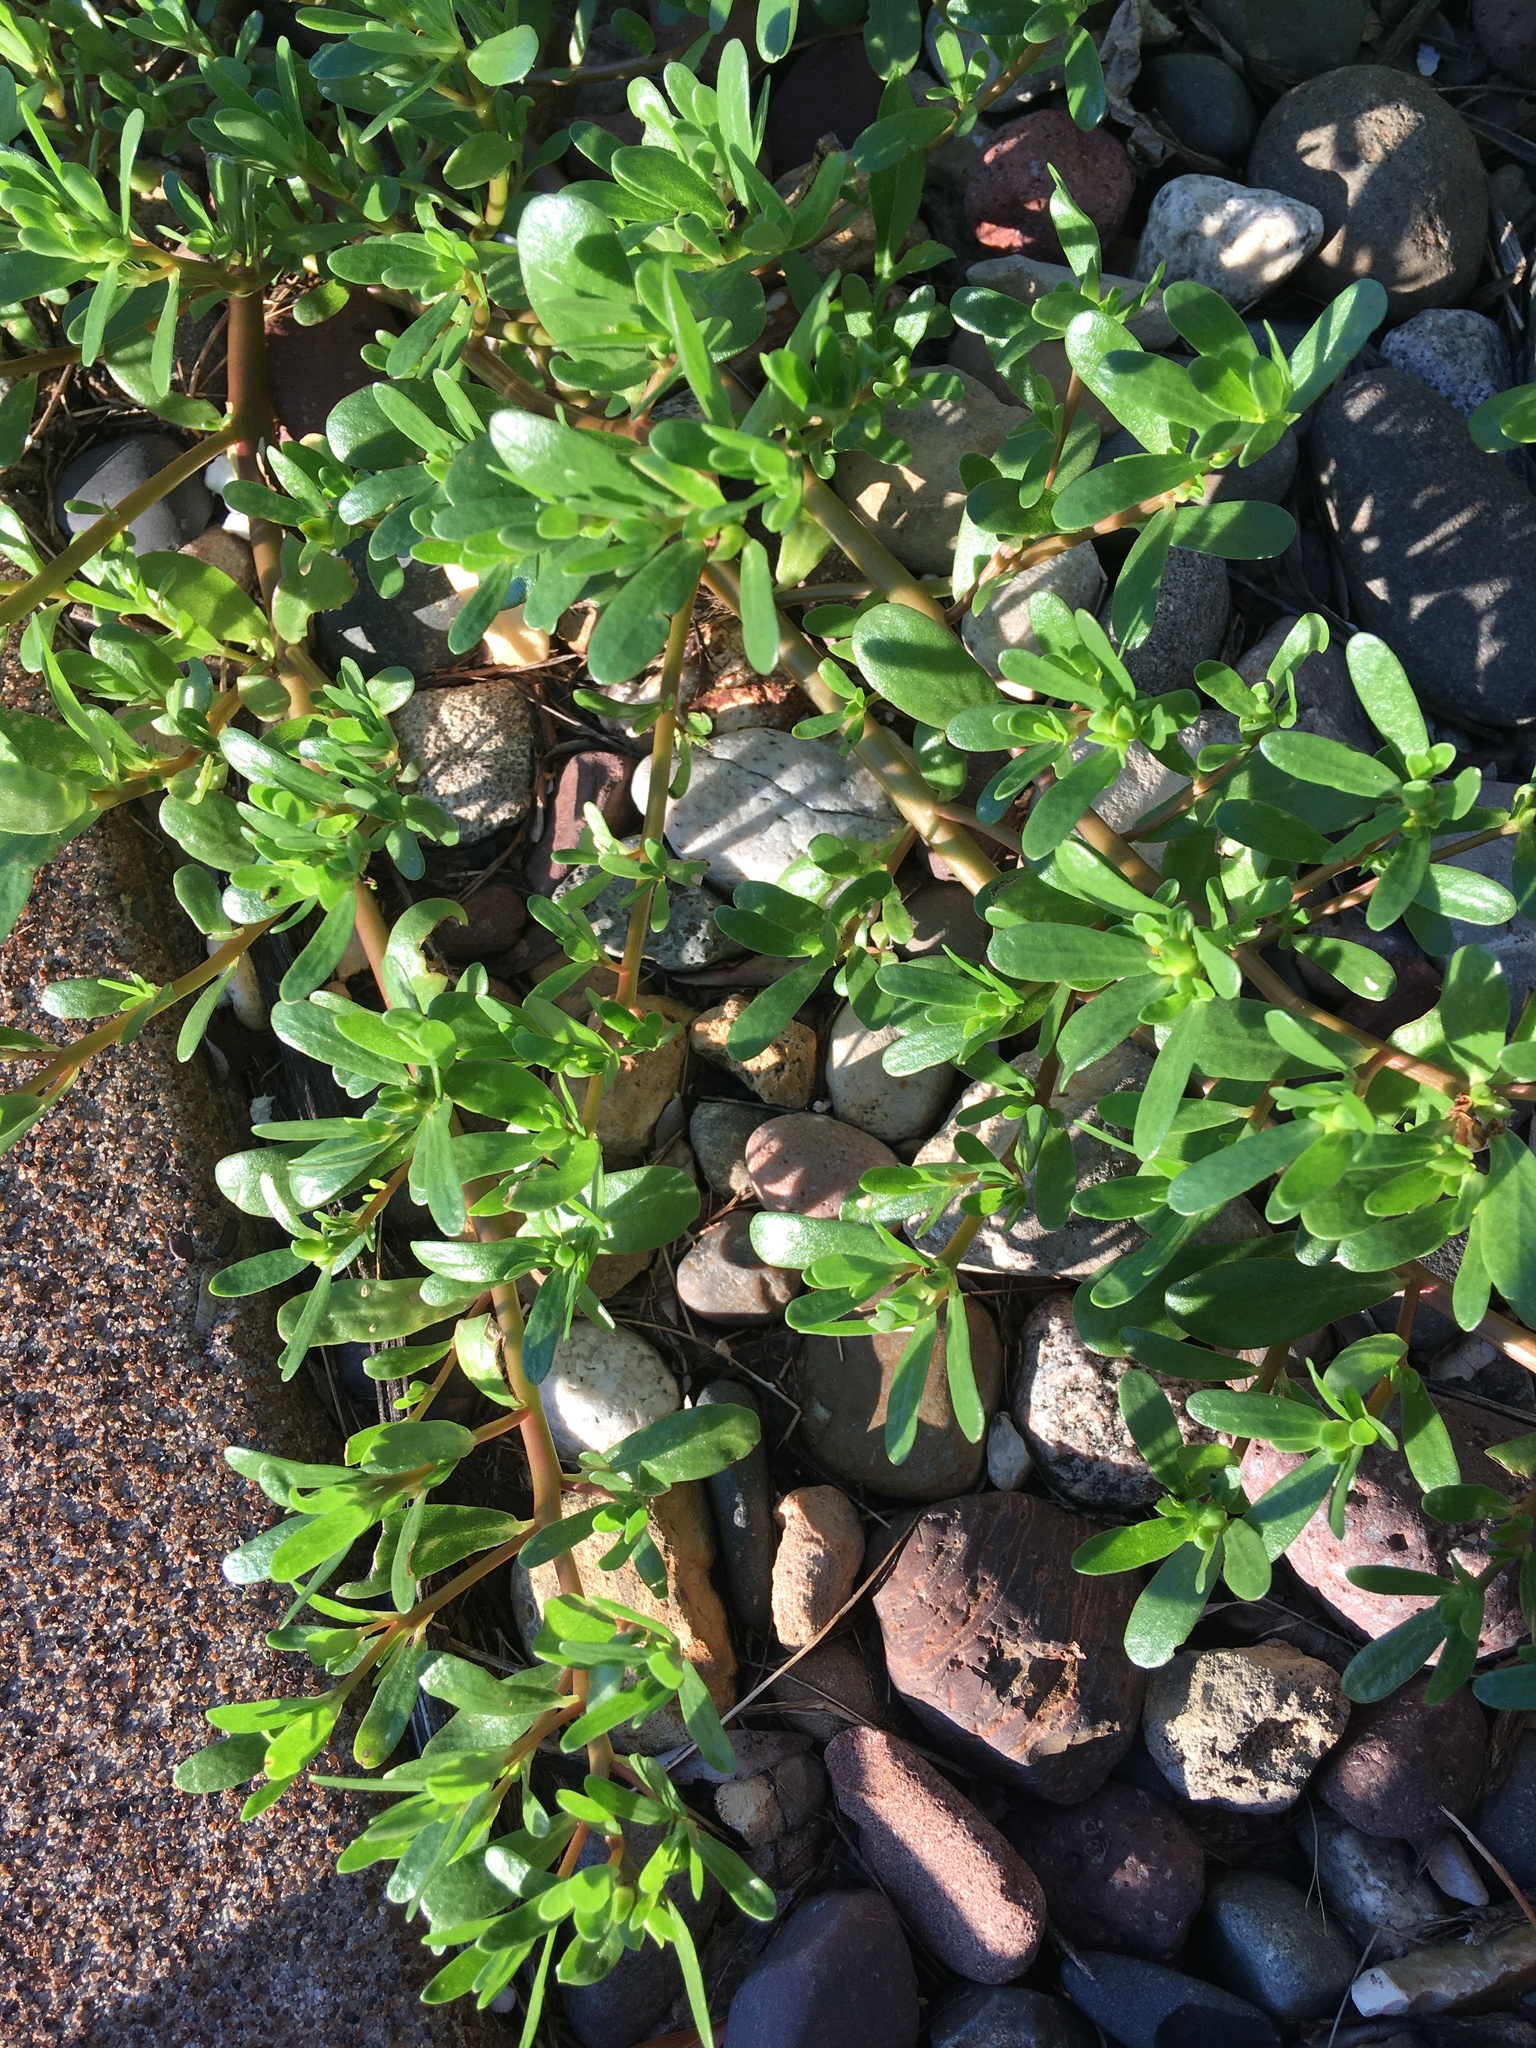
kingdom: Plantae
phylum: Tracheophyta
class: Magnoliopsida
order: Caryophyllales
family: Portulacaceae
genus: Portulaca
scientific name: Portulaca oleracea
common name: Common purslane
